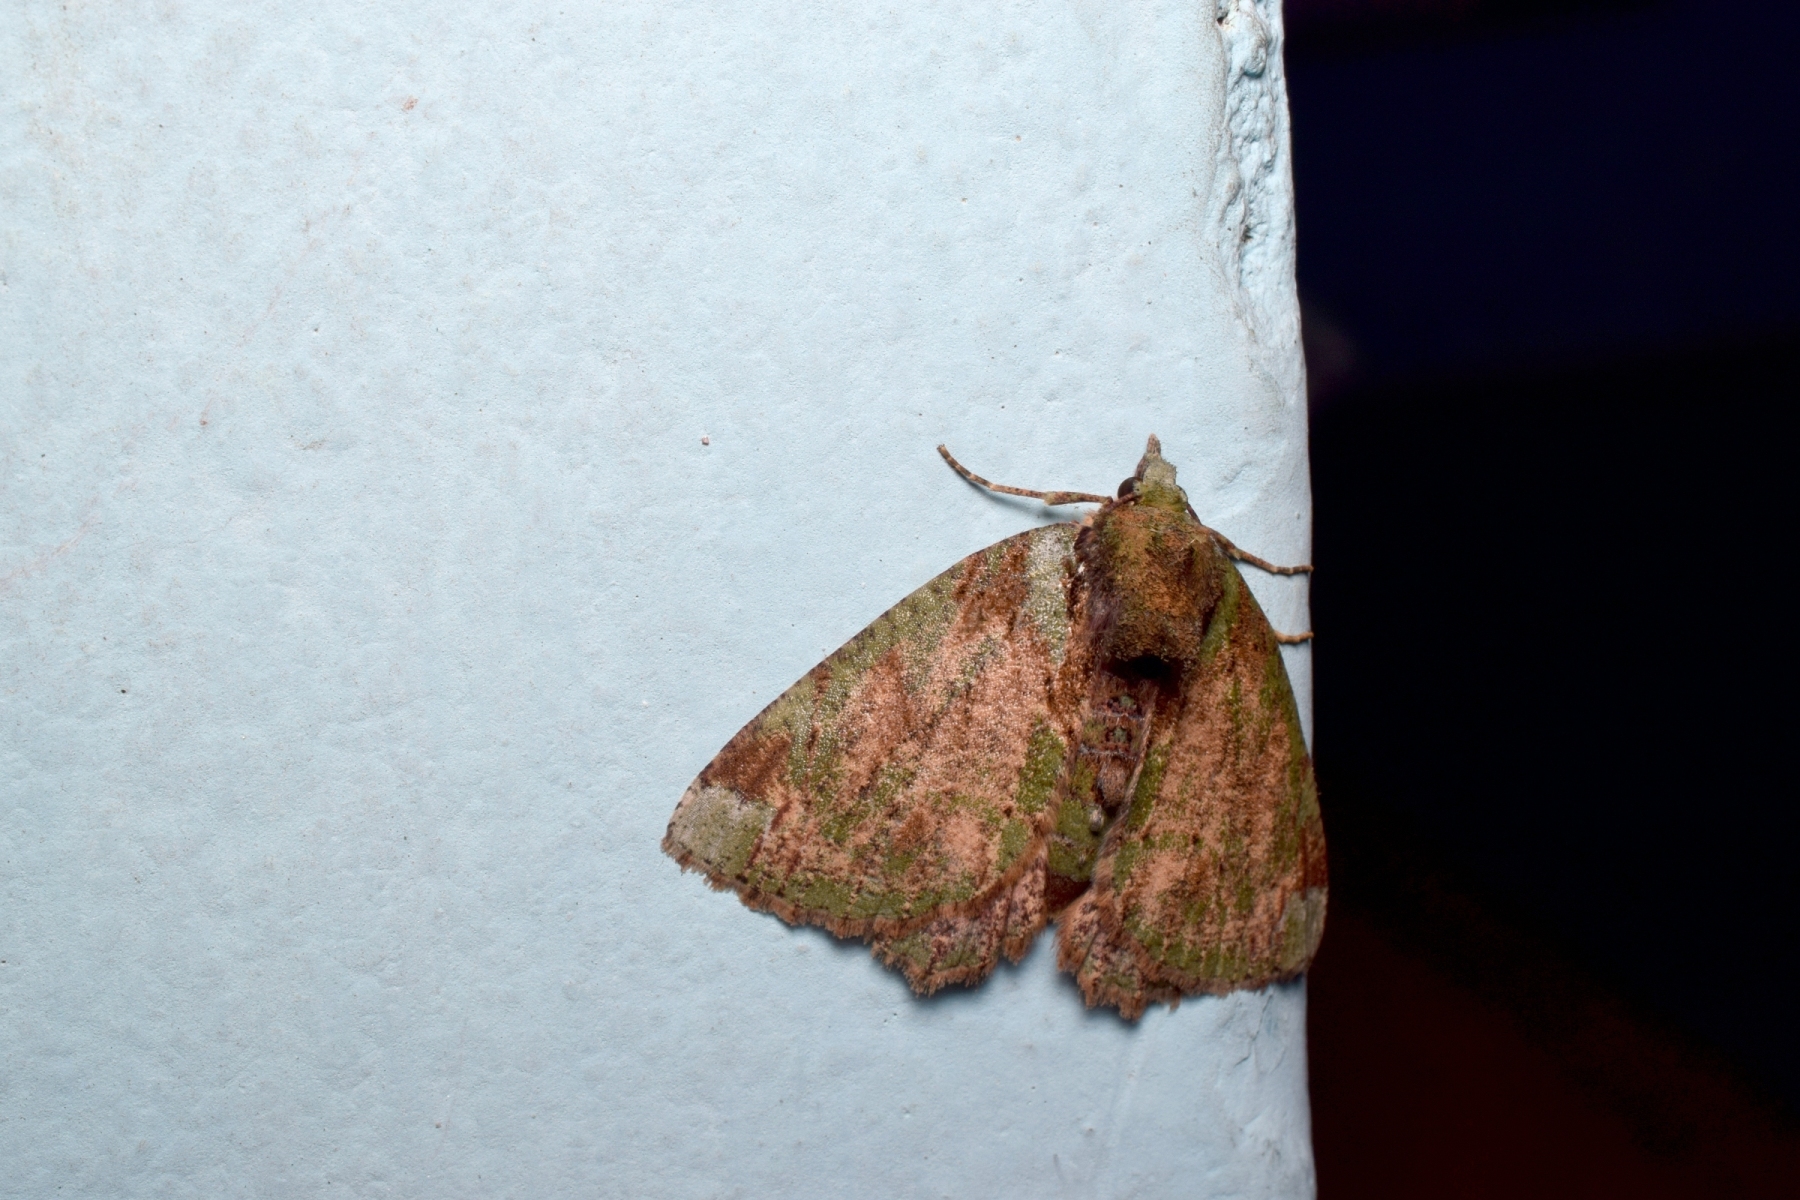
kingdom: Animalia
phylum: Arthropoda
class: Insecta
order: Lepidoptera
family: Geometridae
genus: Dindica
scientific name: Dindica polyphaenaria
